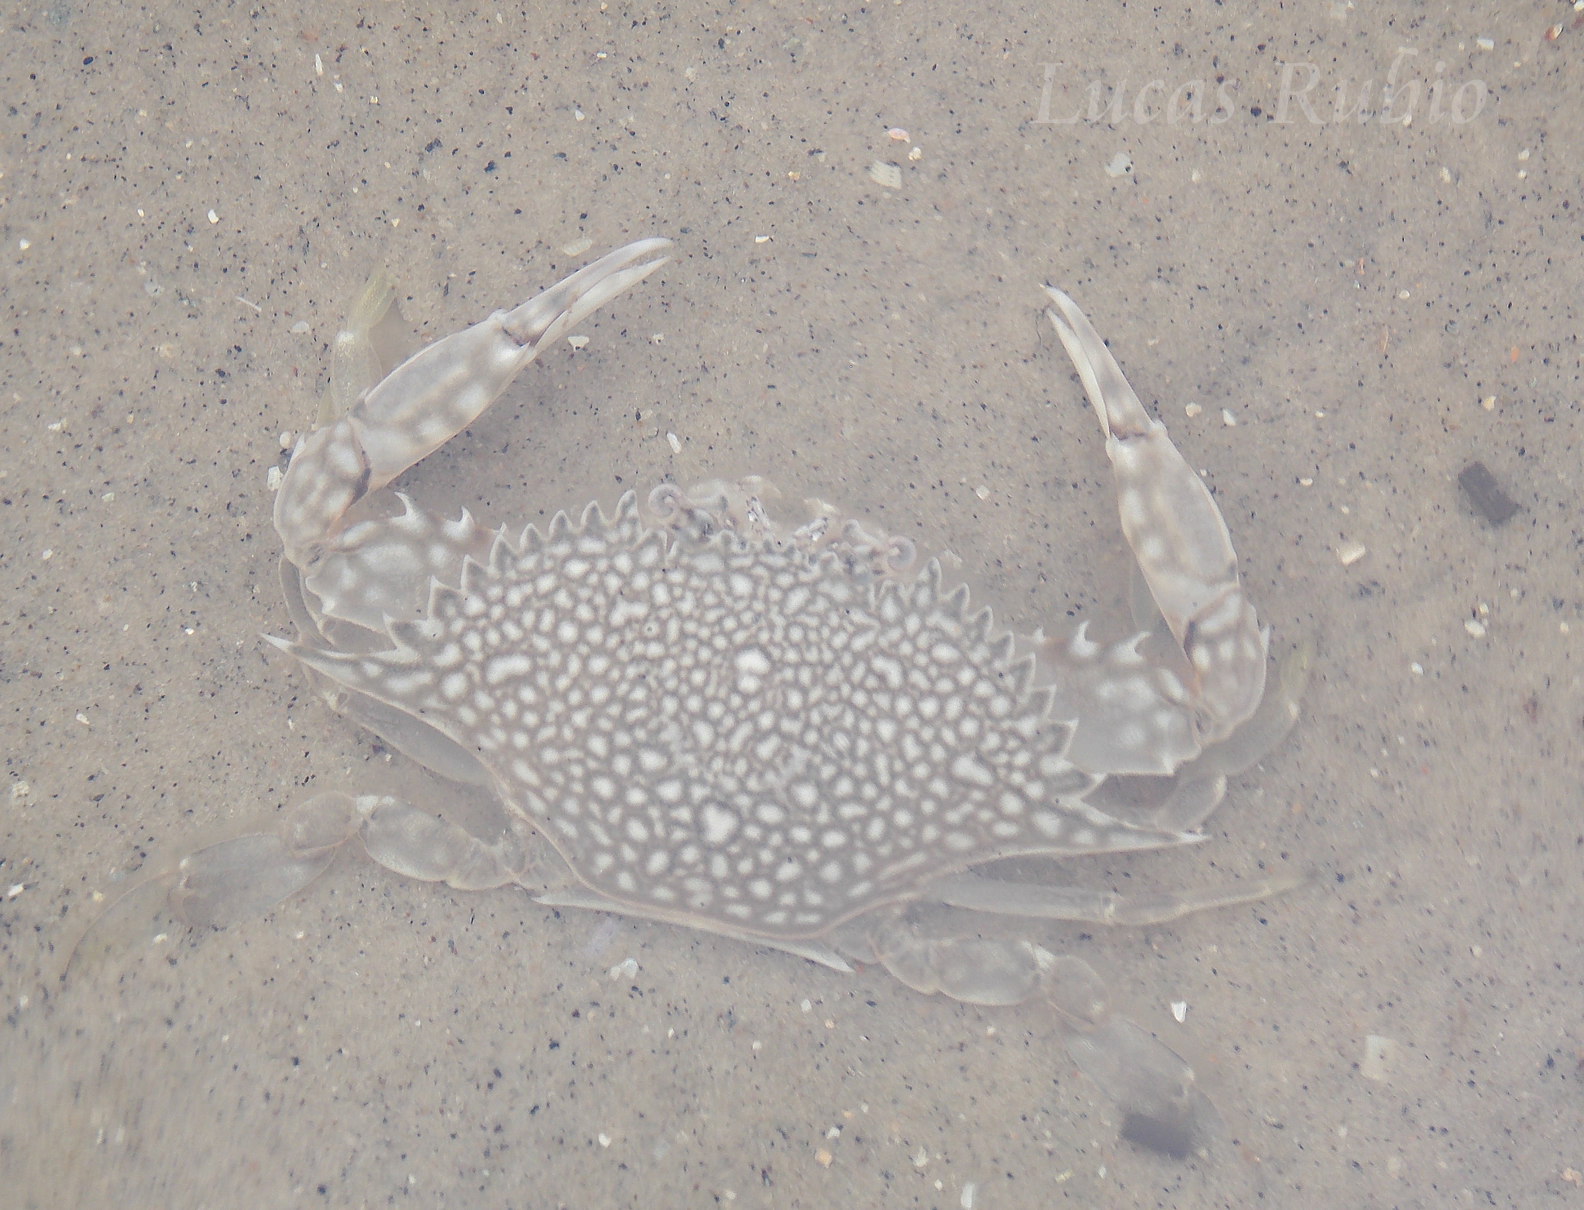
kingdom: Animalia
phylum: Arthropoda
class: Malacostraca
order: Decapoda
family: Portunidae
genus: Arenaeus
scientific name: Arenaeus cribrarius
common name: Speckled crab
